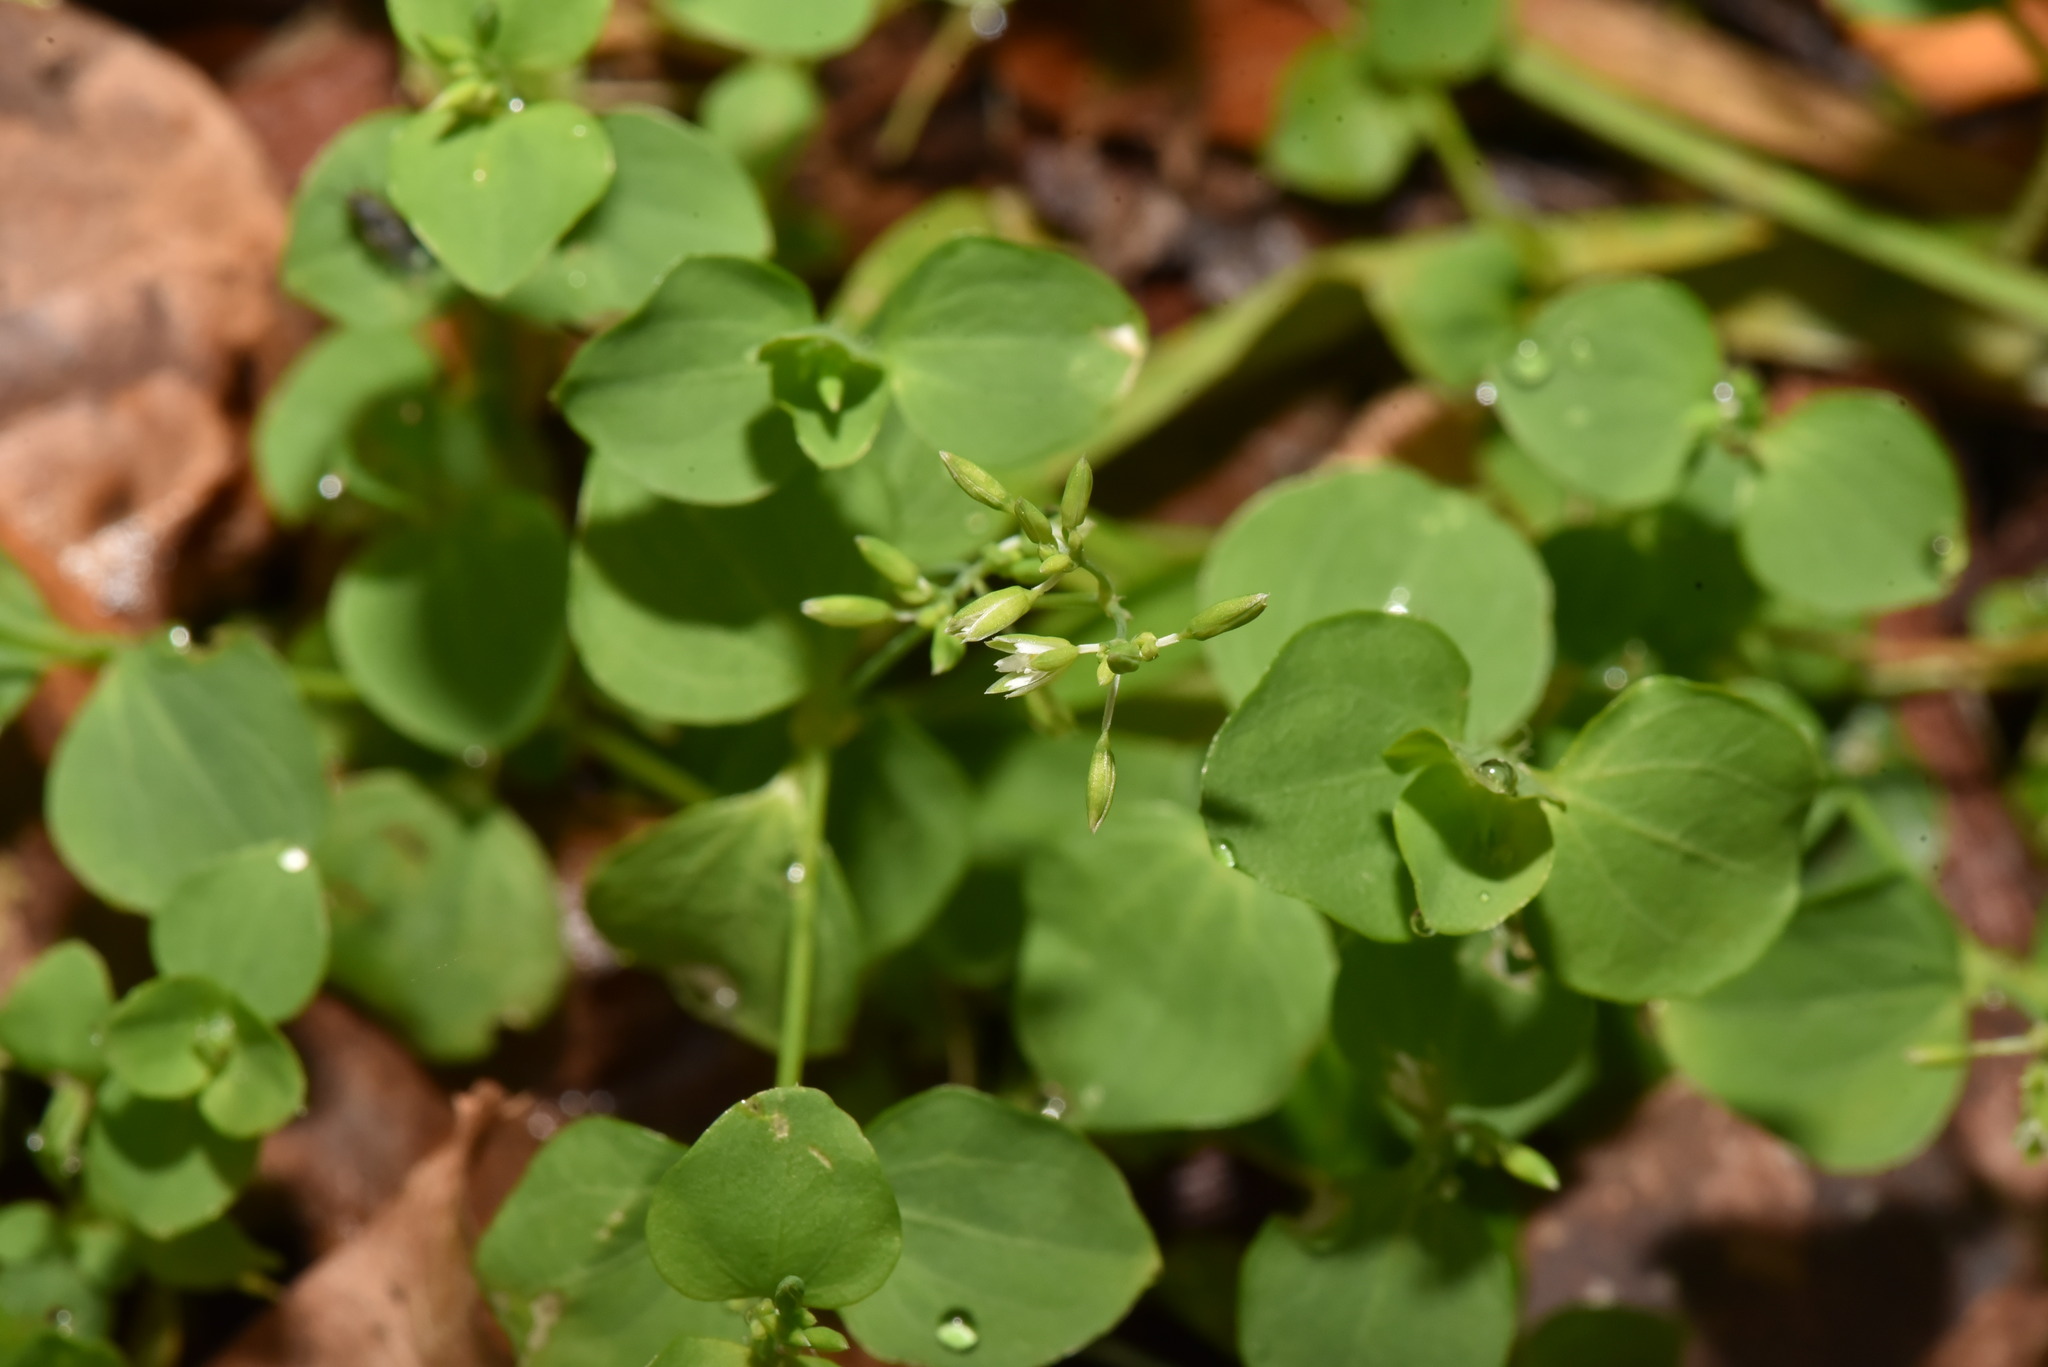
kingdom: Plantae
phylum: Tracheophyta
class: Magnoliopsida
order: Caryophyllales
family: Caryophyllaceae
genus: Drymaria
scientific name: Drymaria cordata
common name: Whitesnow
